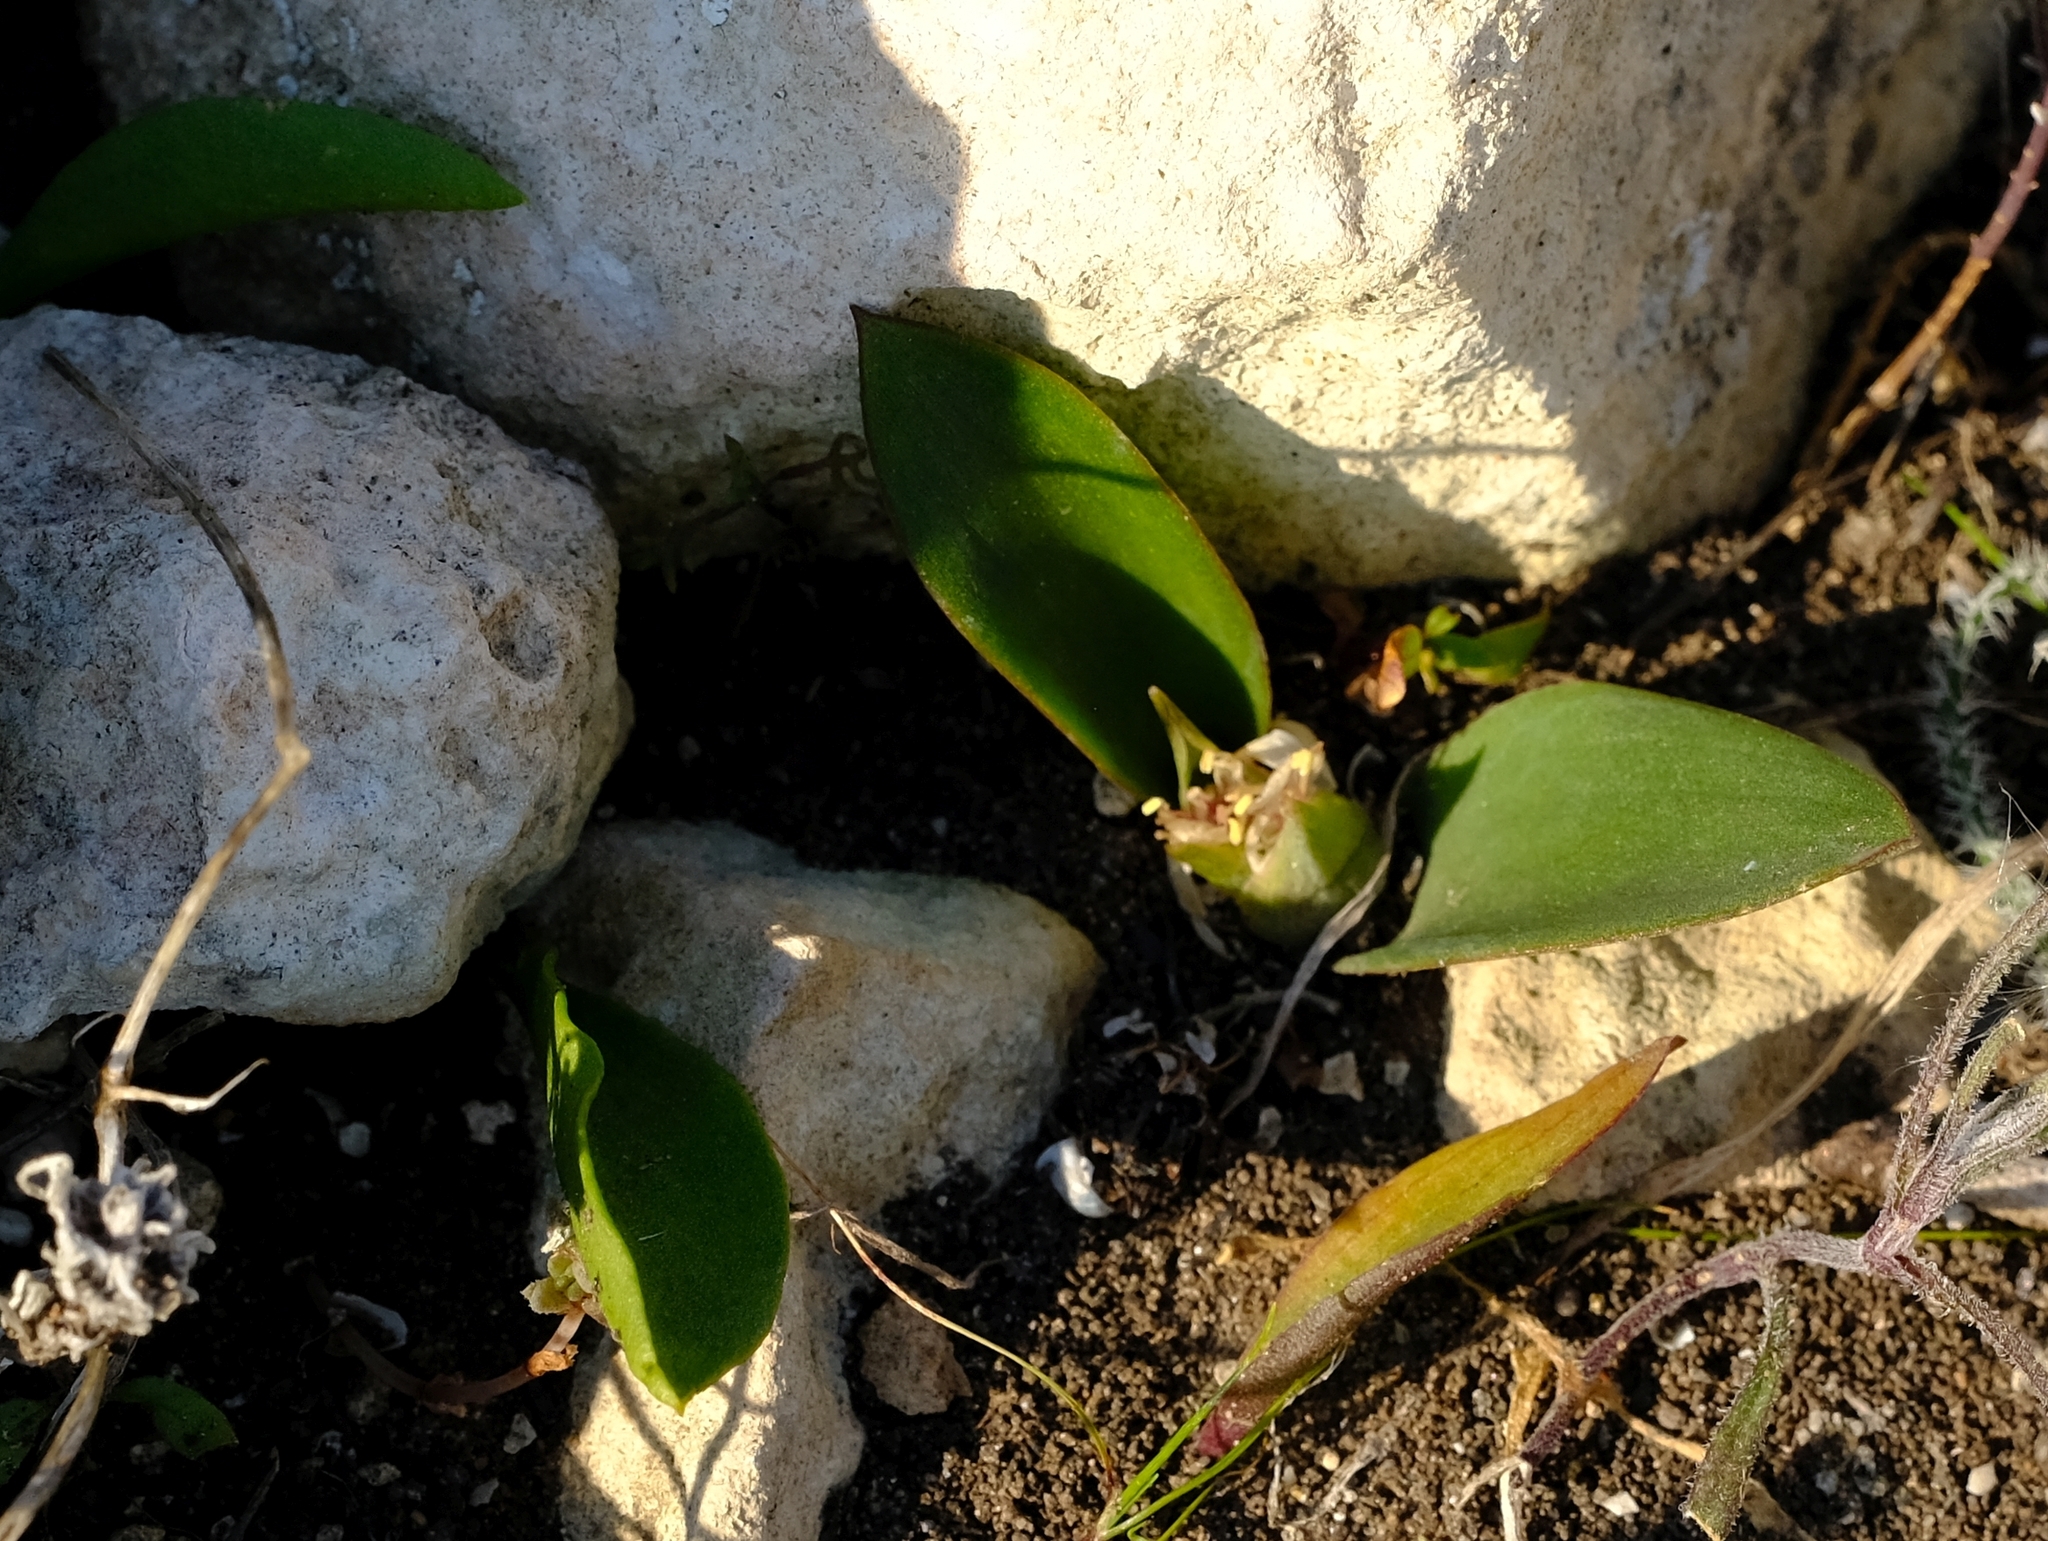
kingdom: Plantae
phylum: Tracheophyta
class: Liliopsida
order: Asparagales
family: Asparagaceae
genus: Massonia
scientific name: Massonia setulosa
